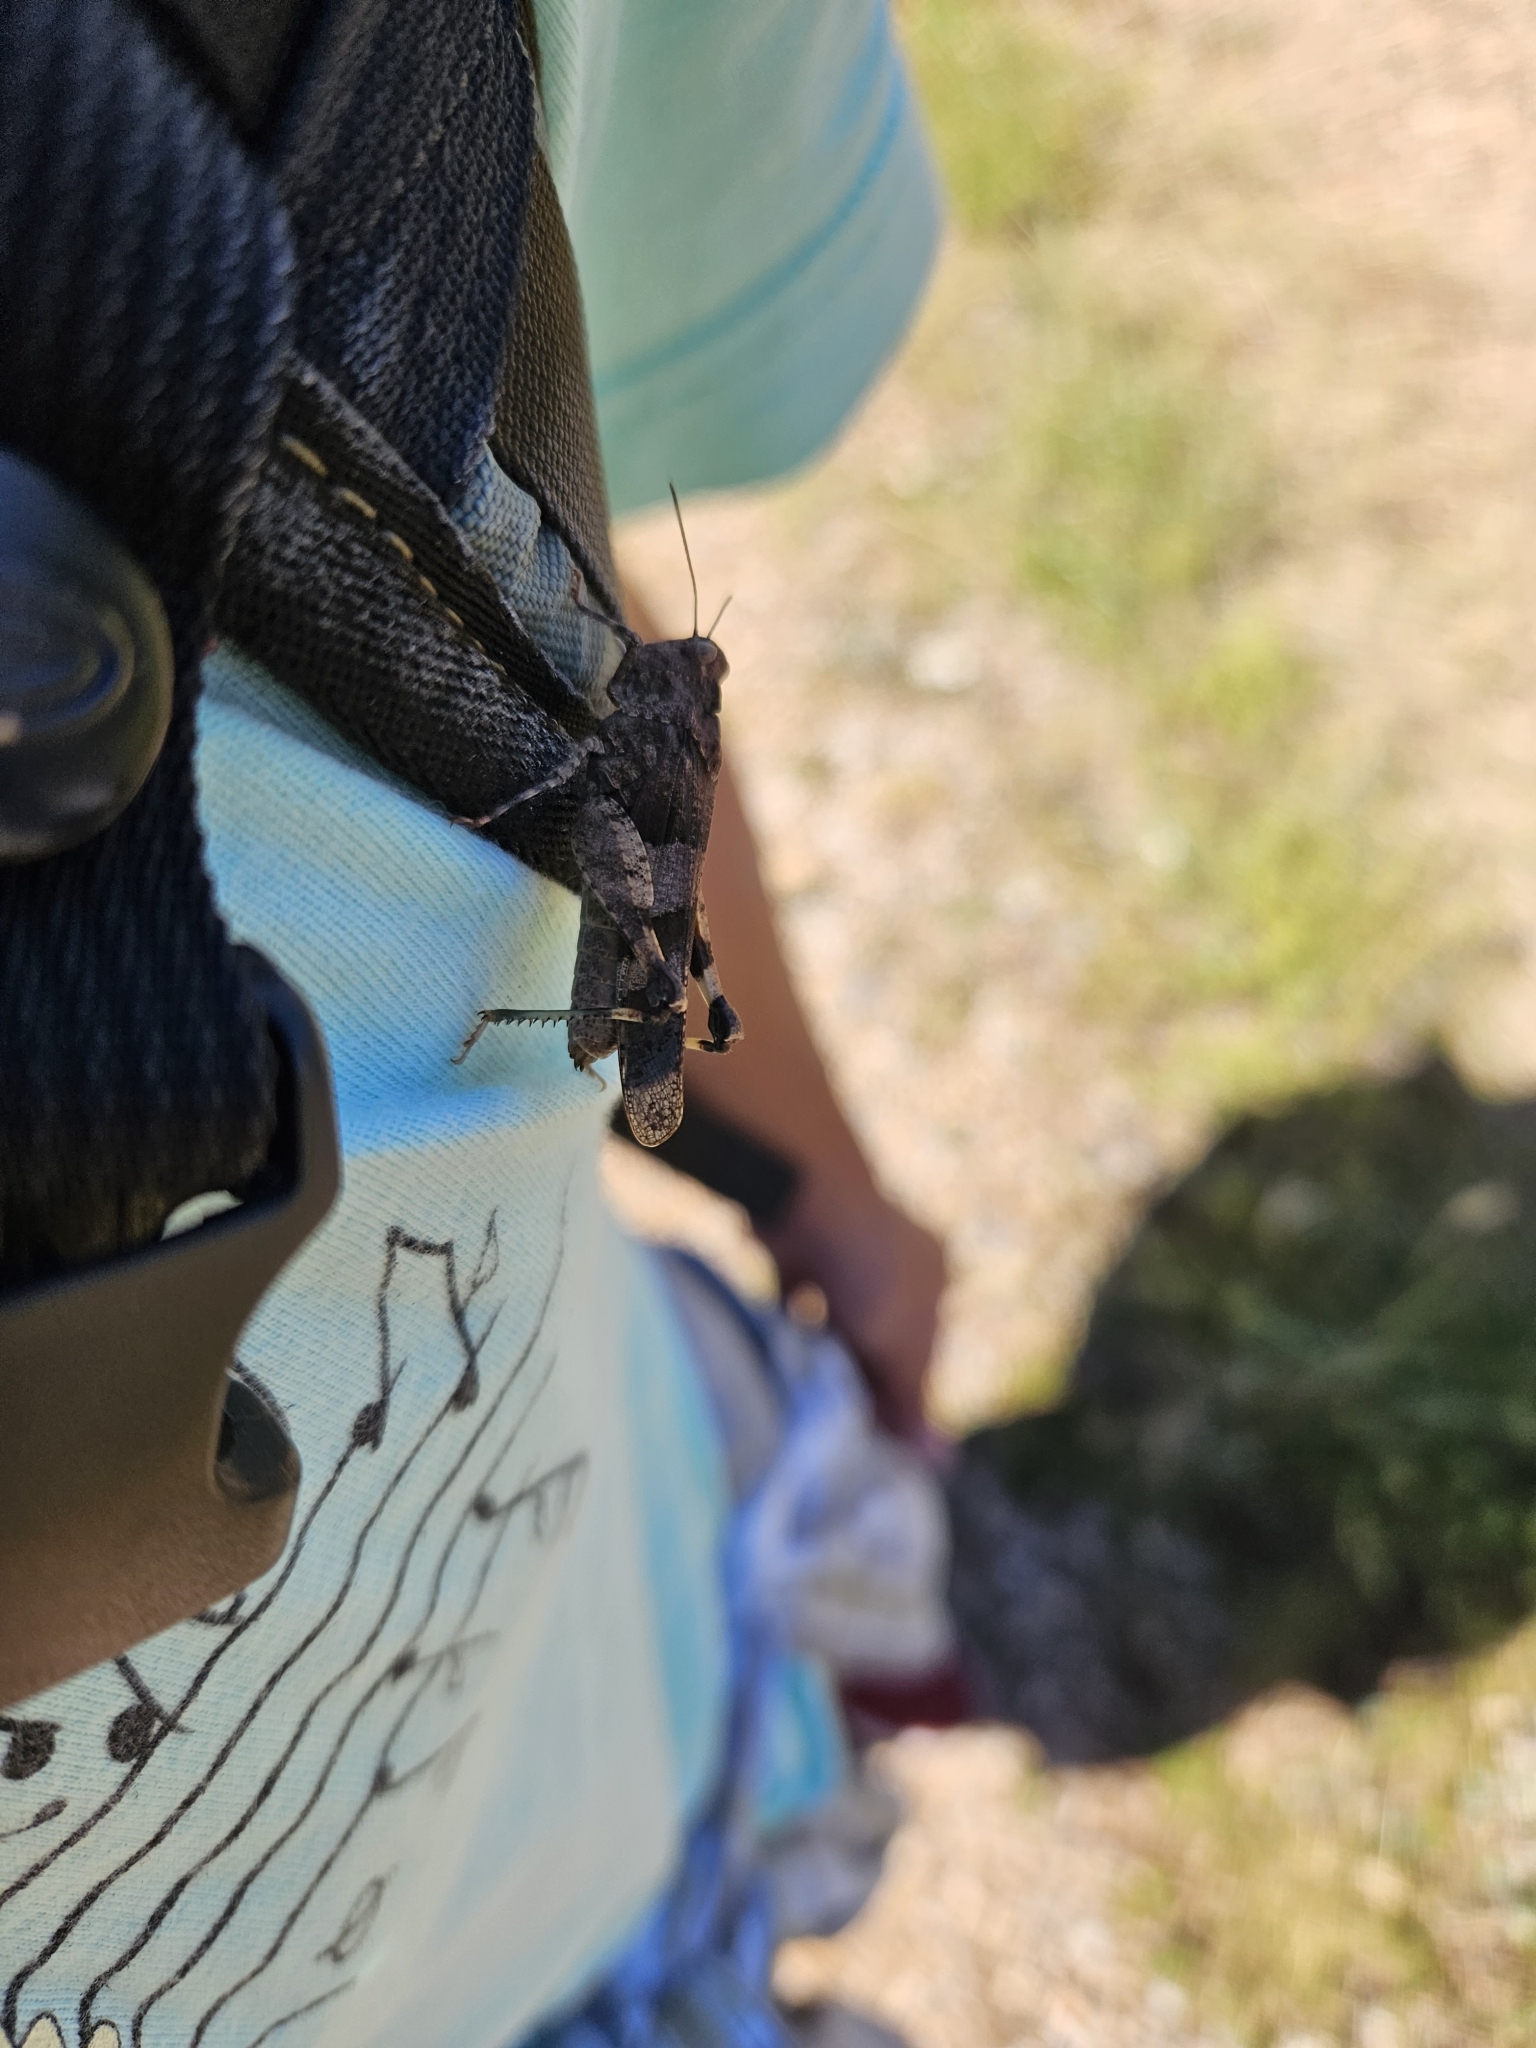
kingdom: Animalia
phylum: Arthropoda
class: Insecta
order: Orthoptera
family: Acrididae
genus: Oedipoda
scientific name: Oedipoda caerulescens
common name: Blue-winged grasshopper
